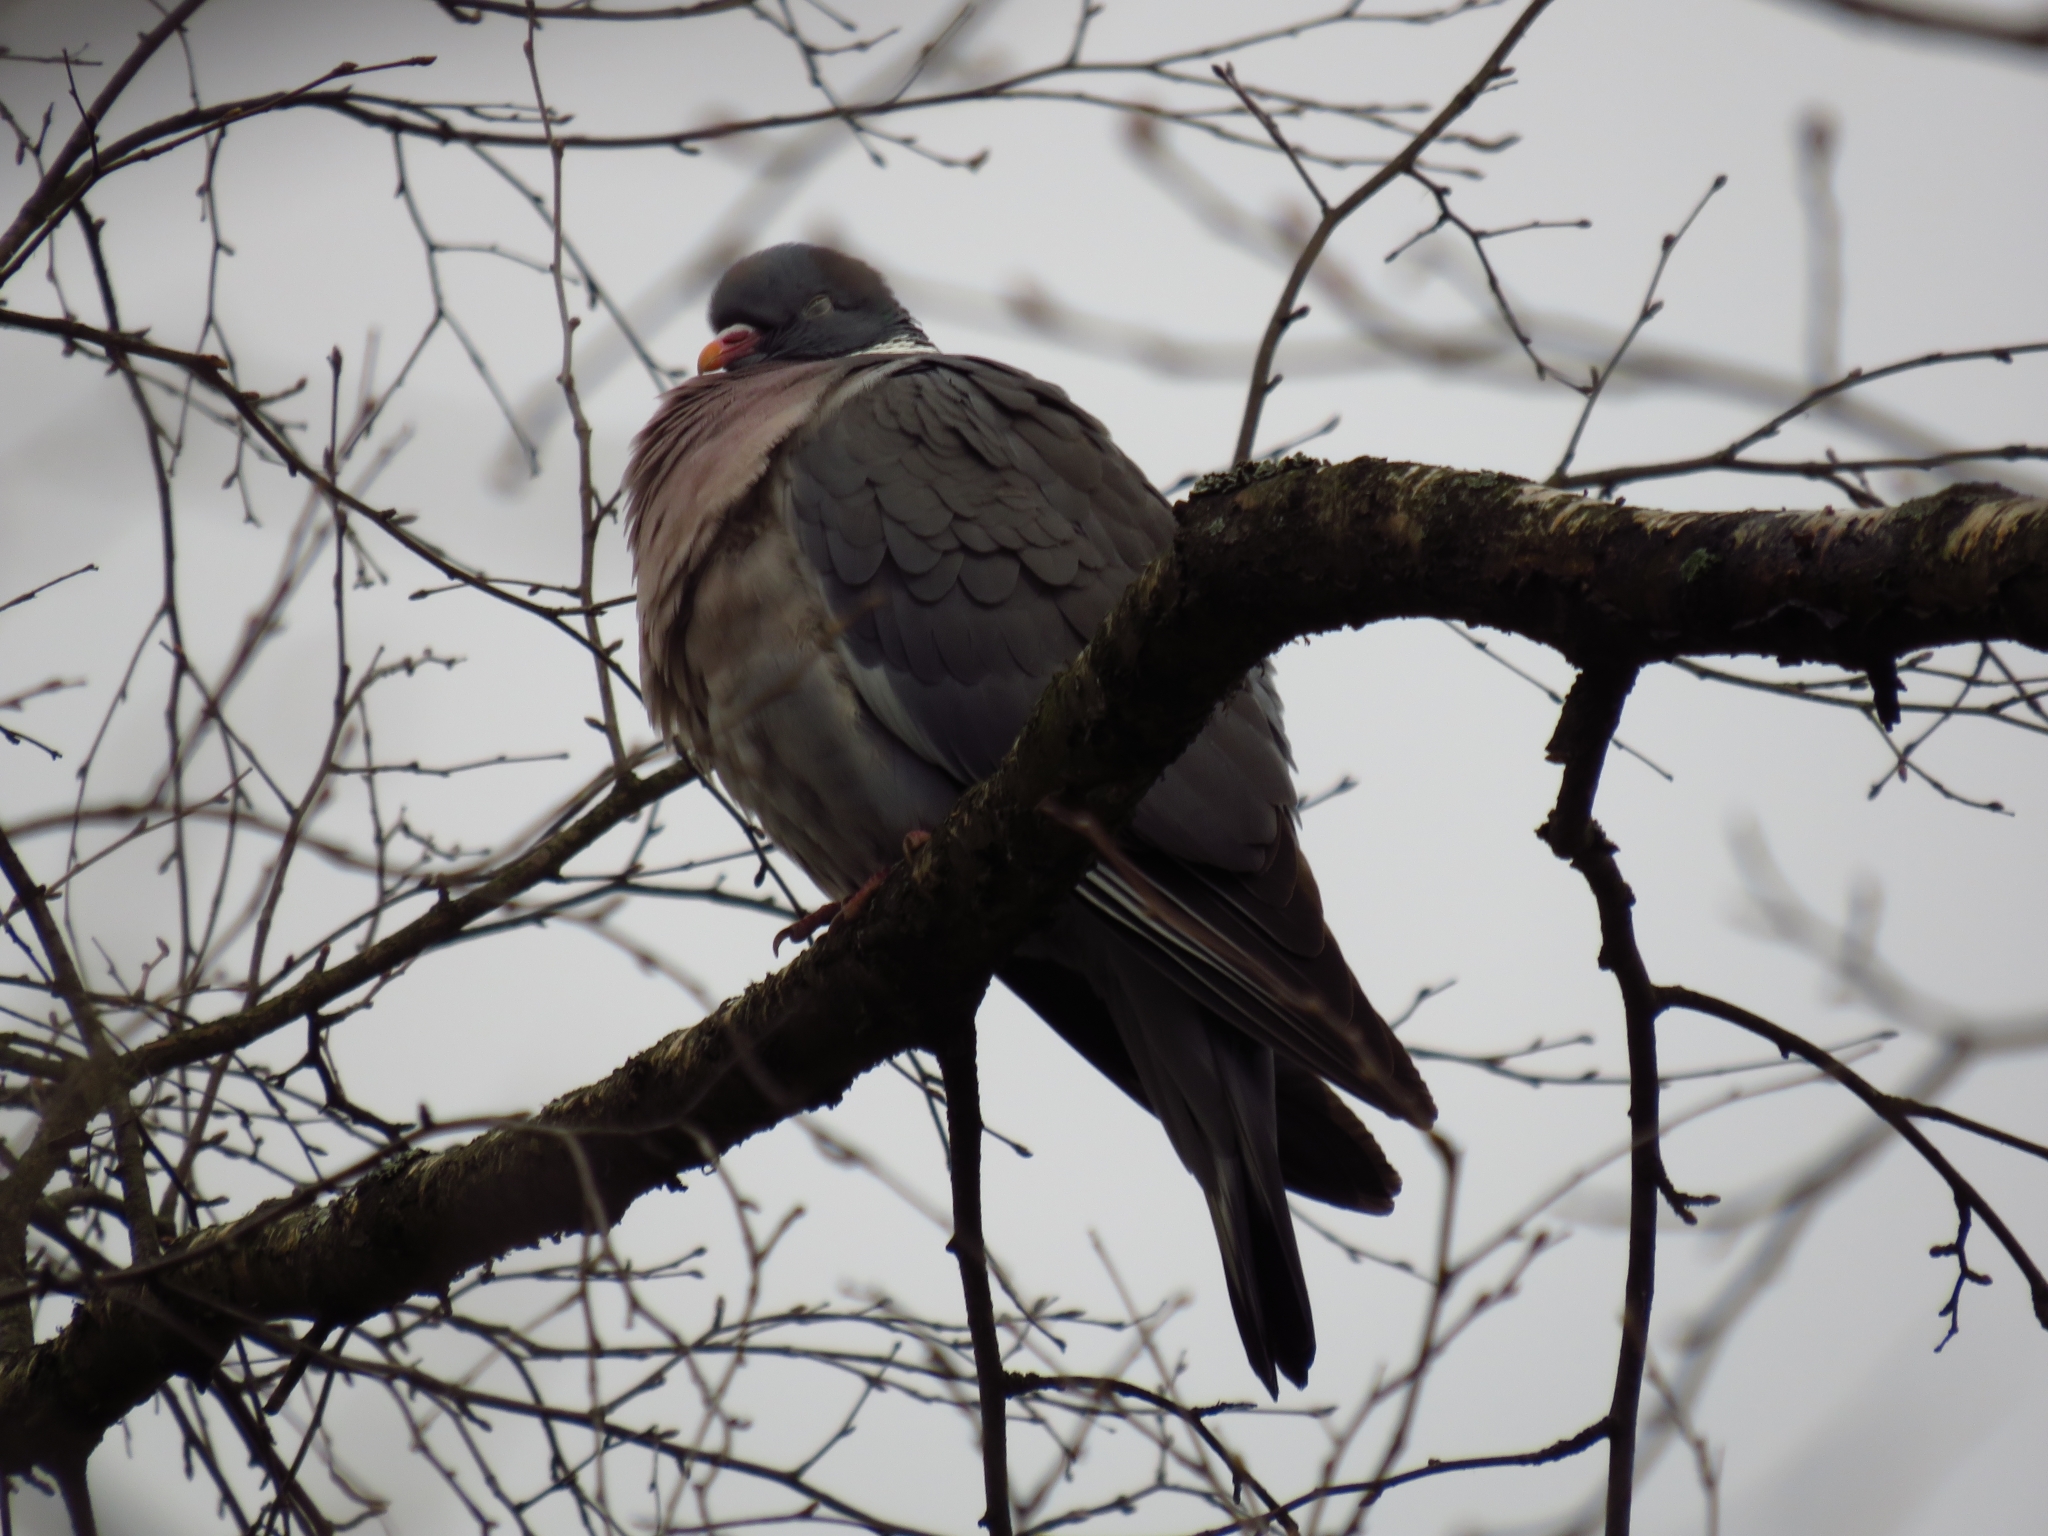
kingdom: Animalia
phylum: Chordata
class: Aves
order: Columbiformes
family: Columbidae
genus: Columba
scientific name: Columba palumbus
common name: Common wood pigeon
